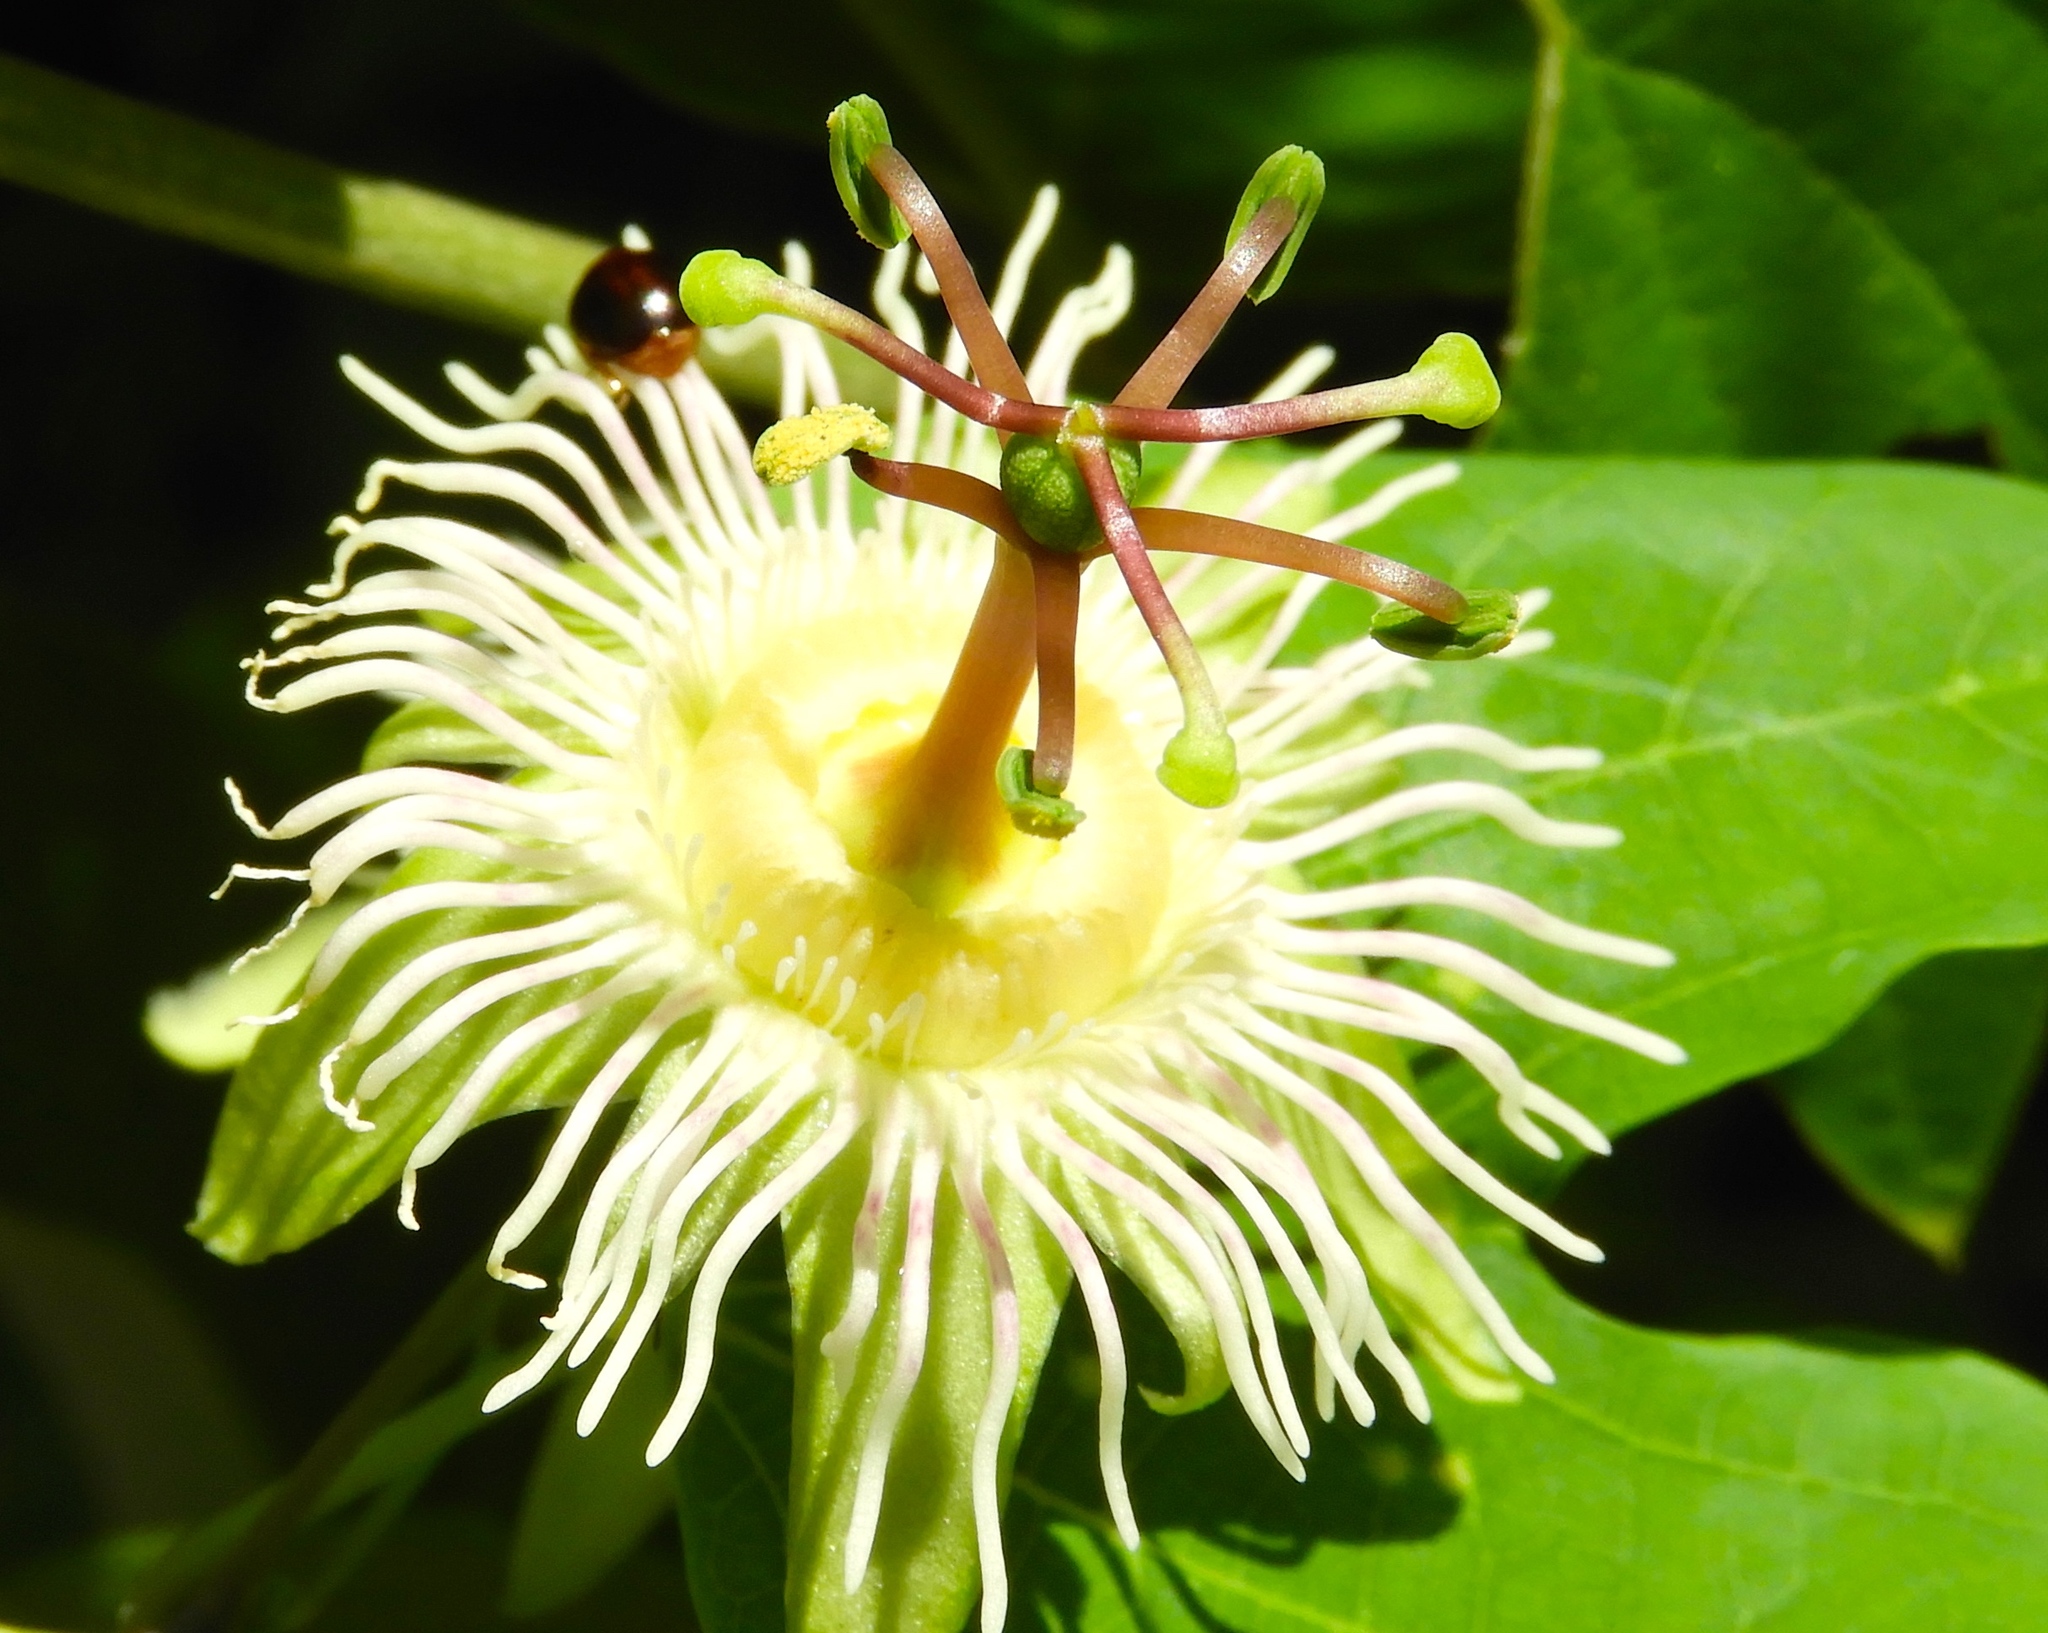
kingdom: Plantae
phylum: Tracheophyta
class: Magnoliopsida
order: Malpighiales
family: Passifloraceae
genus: Passiflora
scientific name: Passiflora mexicana
